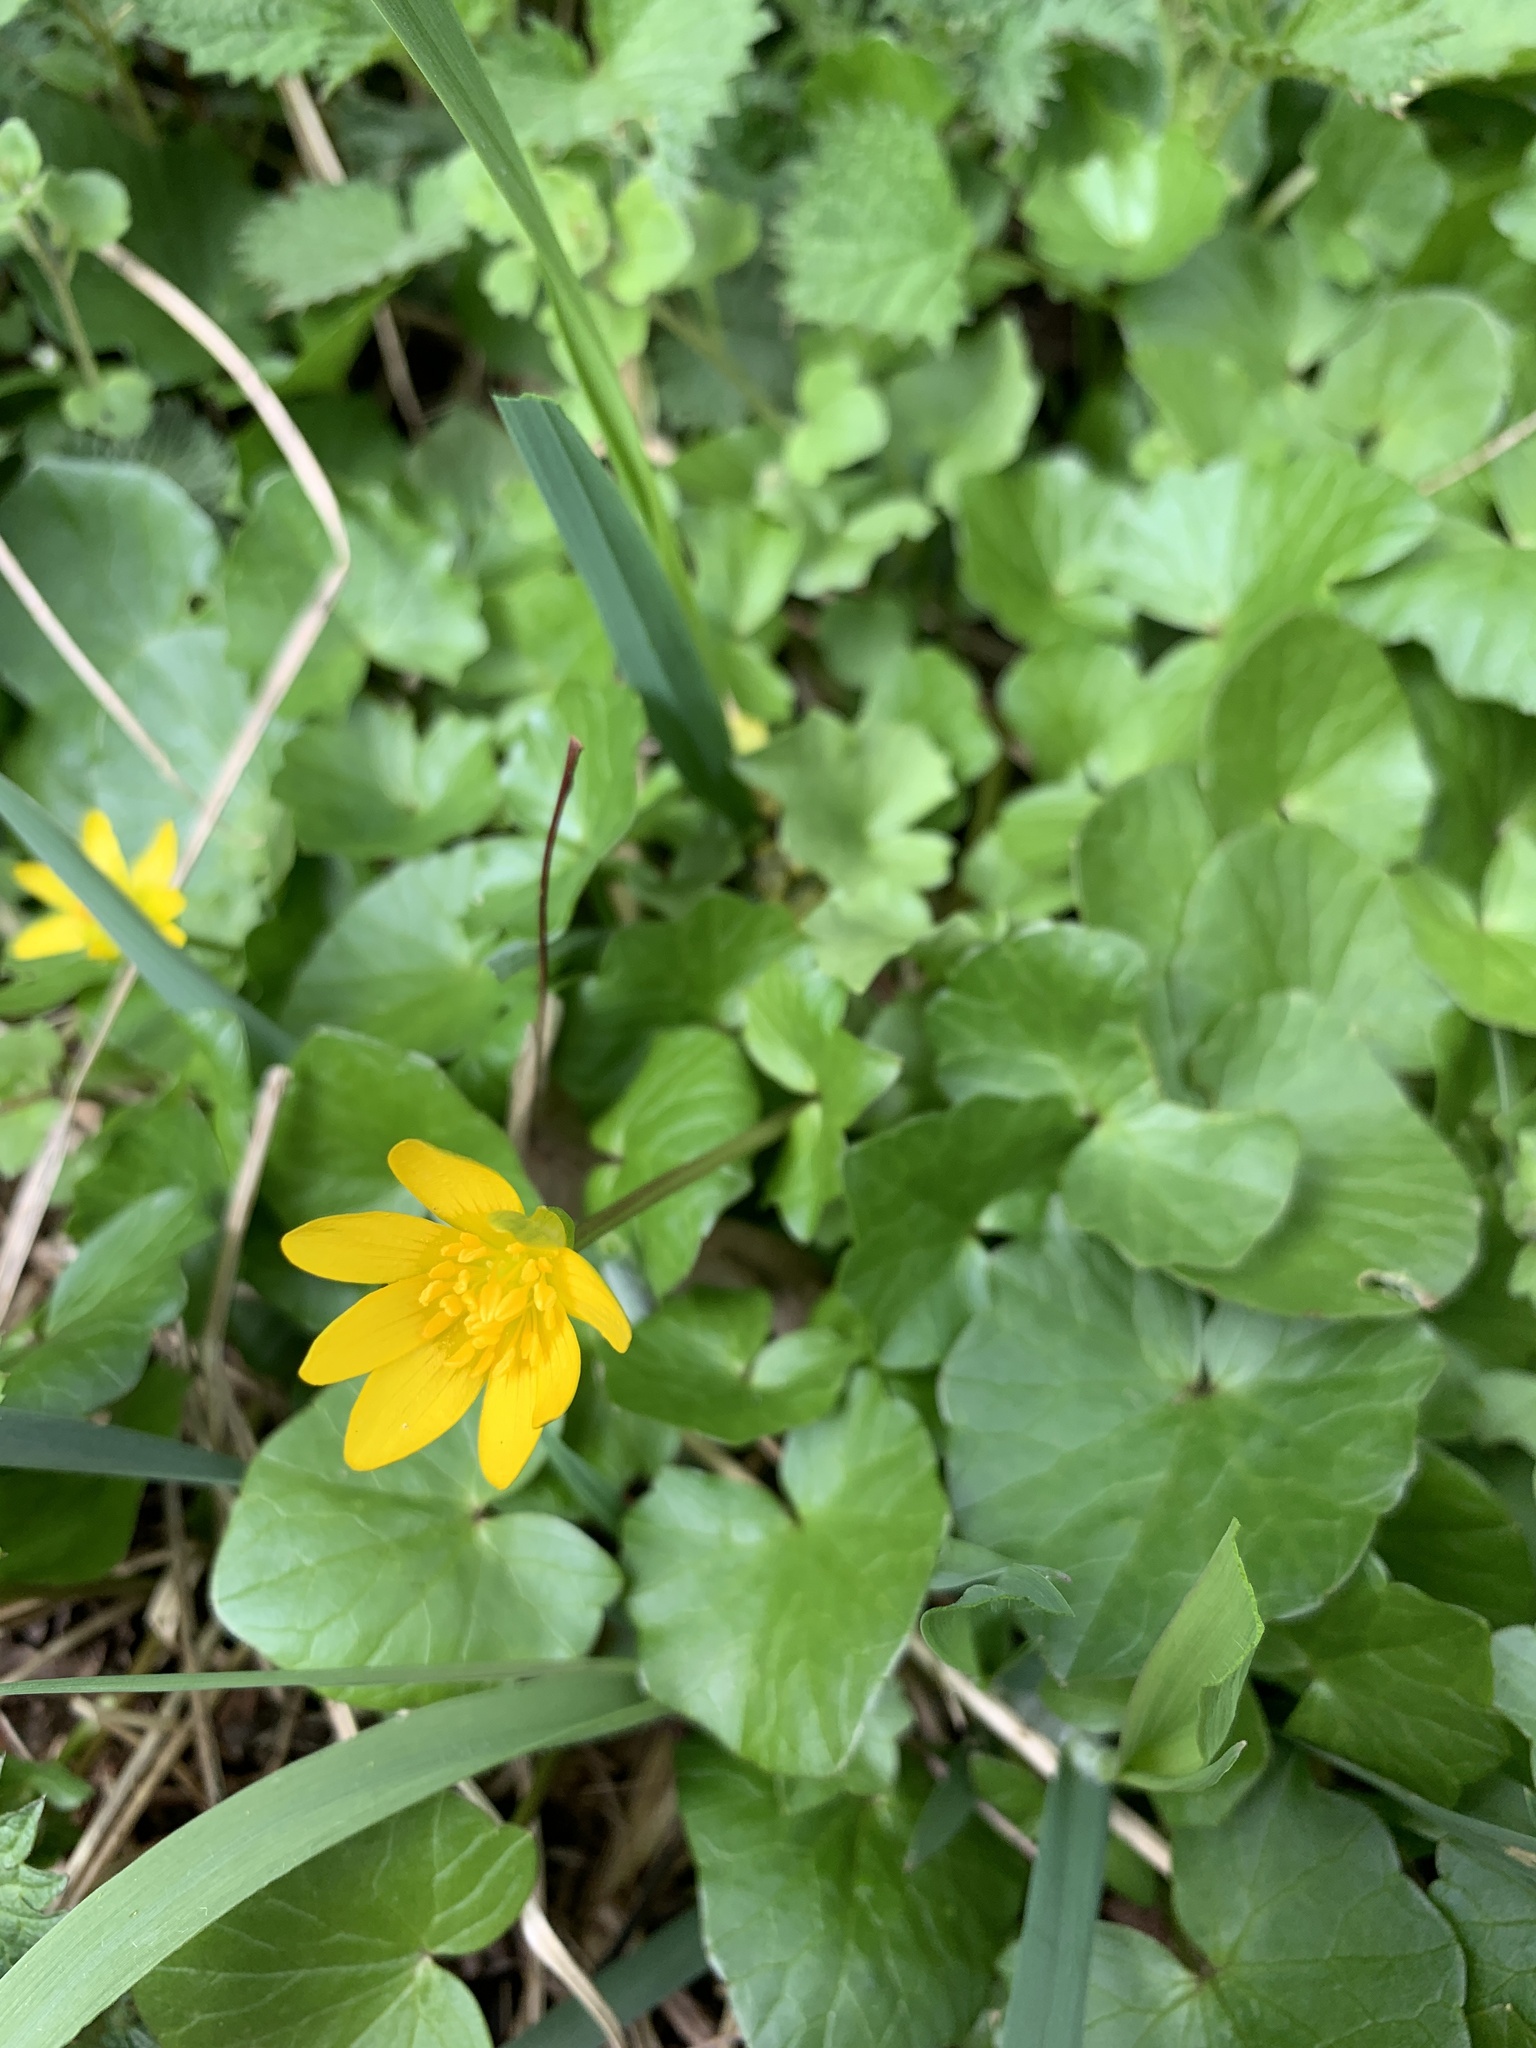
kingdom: Plantae
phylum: Tracheophyta
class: Magnoliopsida
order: Ranunculales
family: Ranunculaceae
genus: Ficaria
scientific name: Ficaria verna
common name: Lesser celandine
